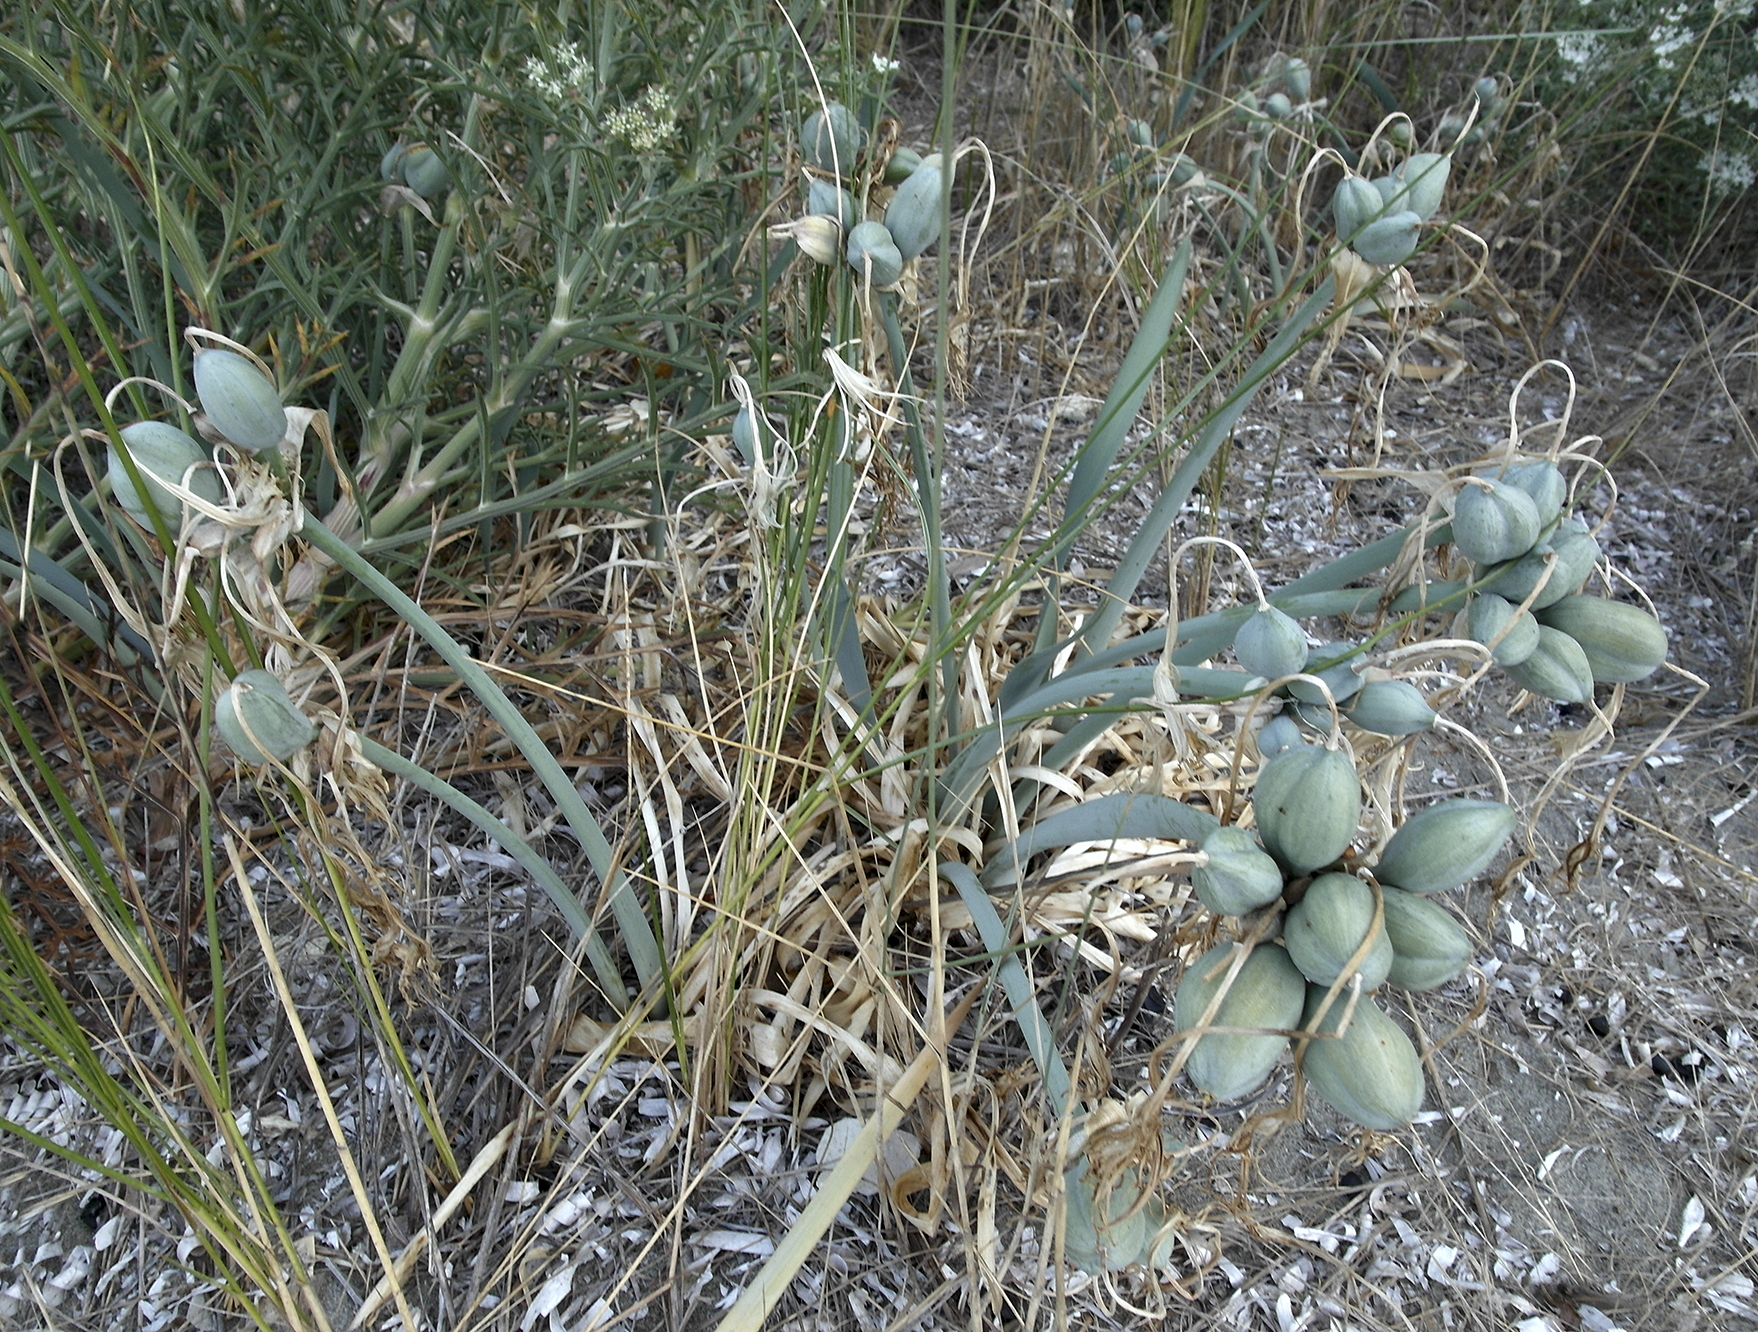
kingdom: Plantae
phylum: Tracheophyta
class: Liliopsida
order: Asparagales
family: Amaryllidaceae
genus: Pancratium
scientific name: Pancratium maritimum
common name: Sea-daffodil
